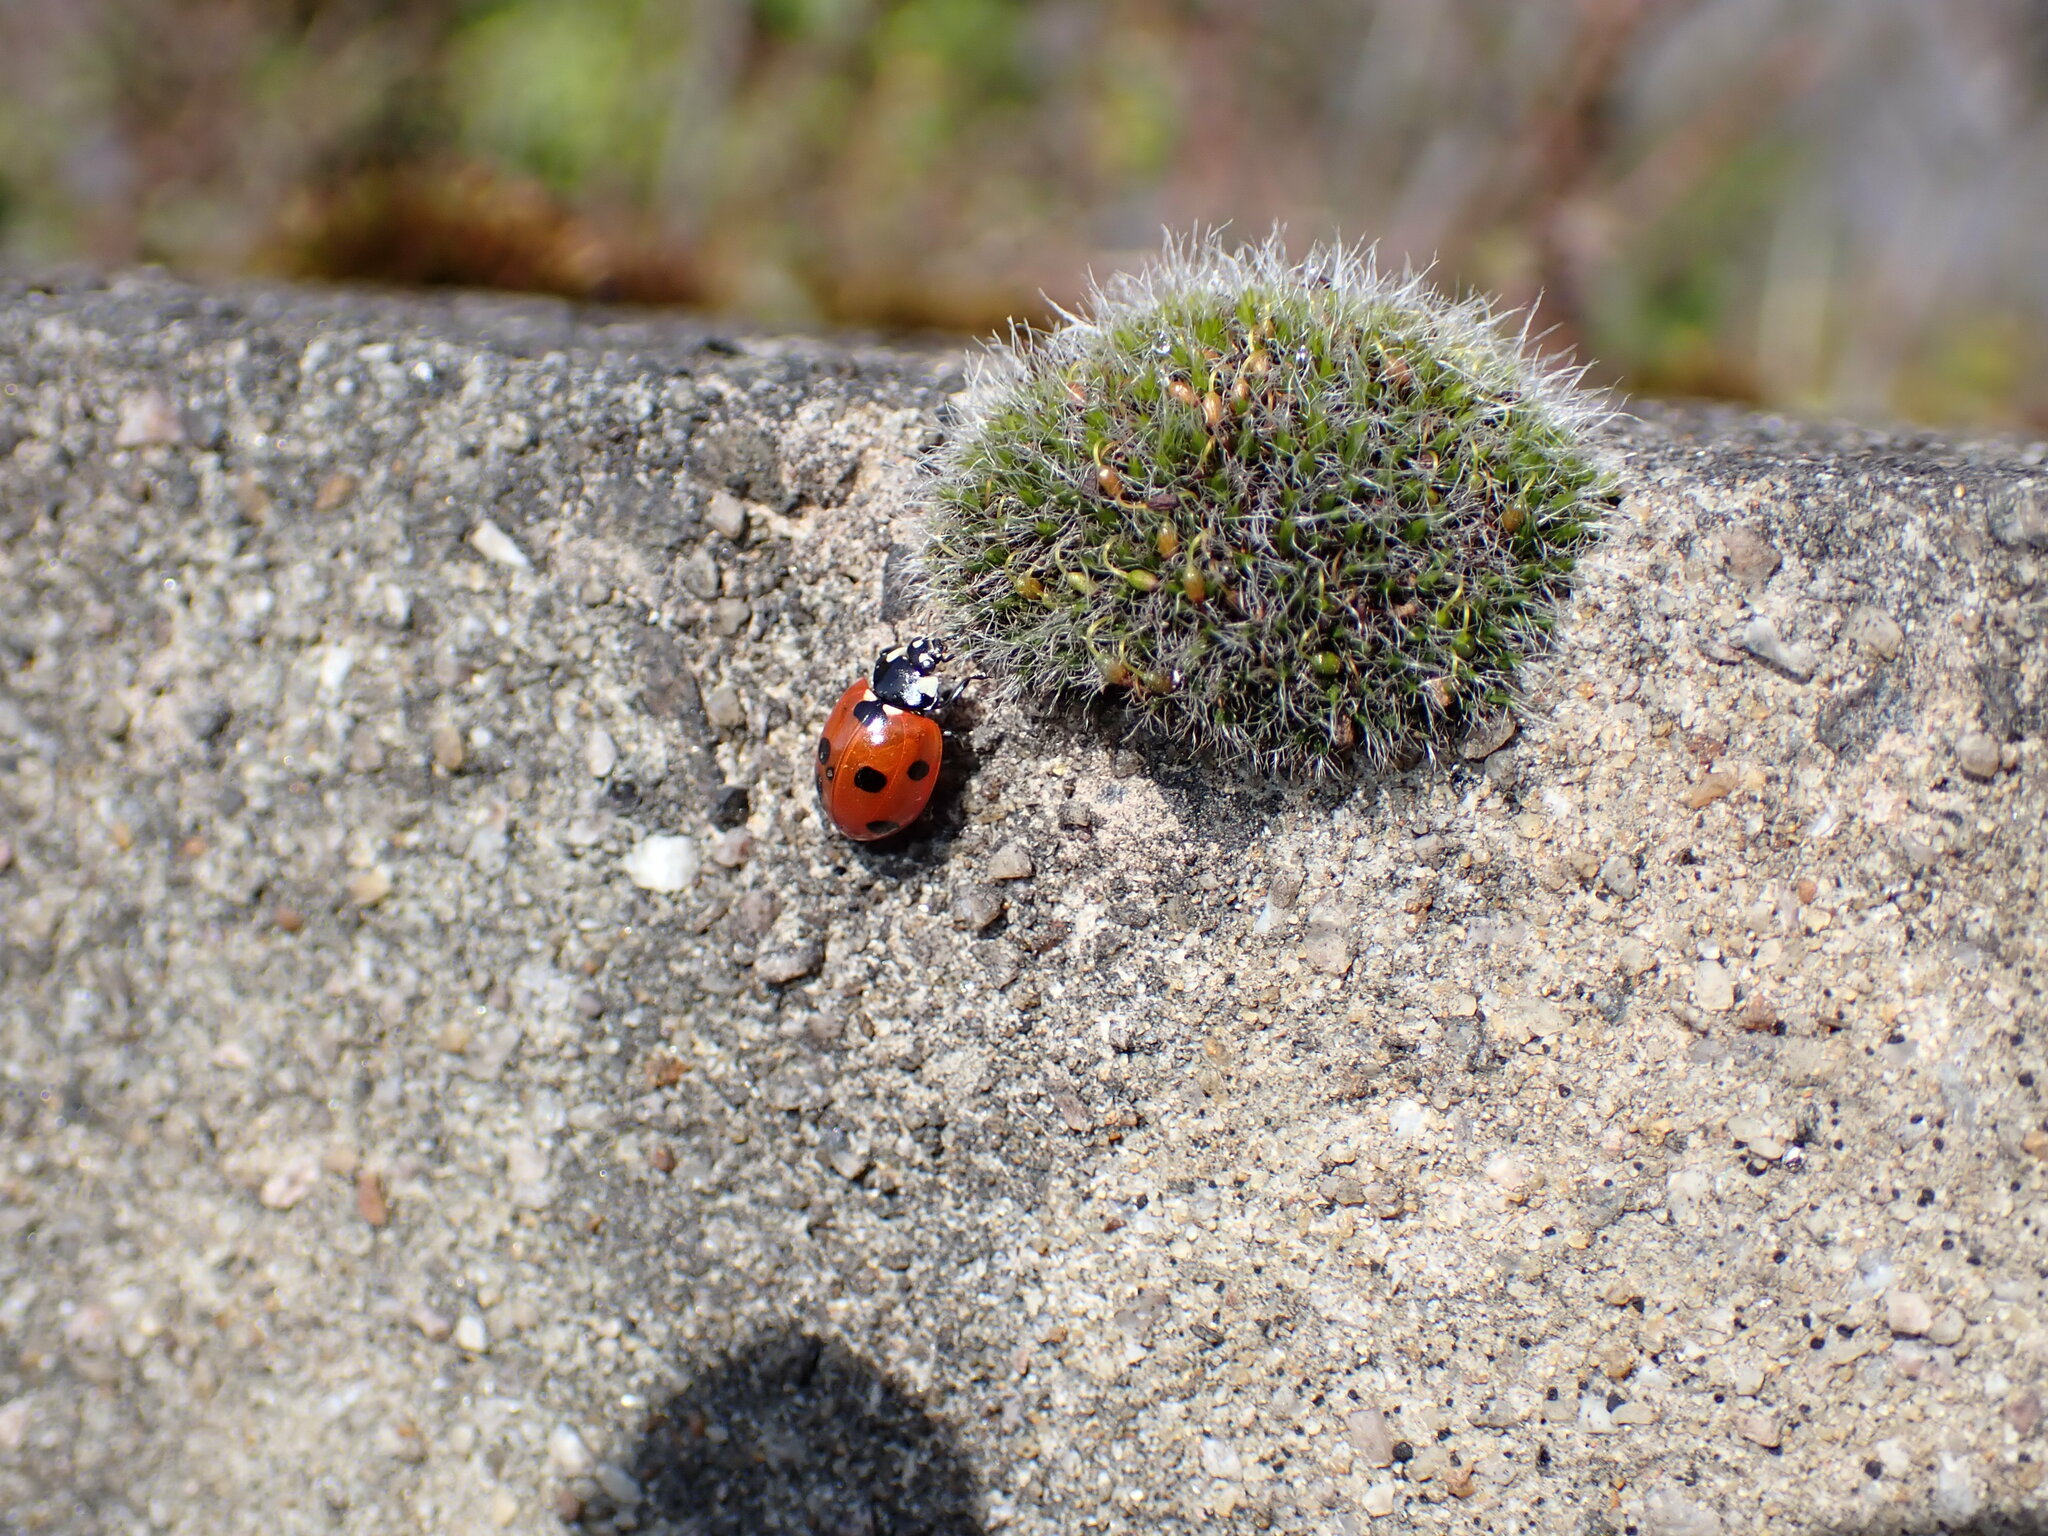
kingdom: Animalia
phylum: Arthropoda
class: Insecta
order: Coleoptera
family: Coccinellidae
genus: Coccinella
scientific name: Coccinella septempunctata
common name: Sevenspotted lady beetle
